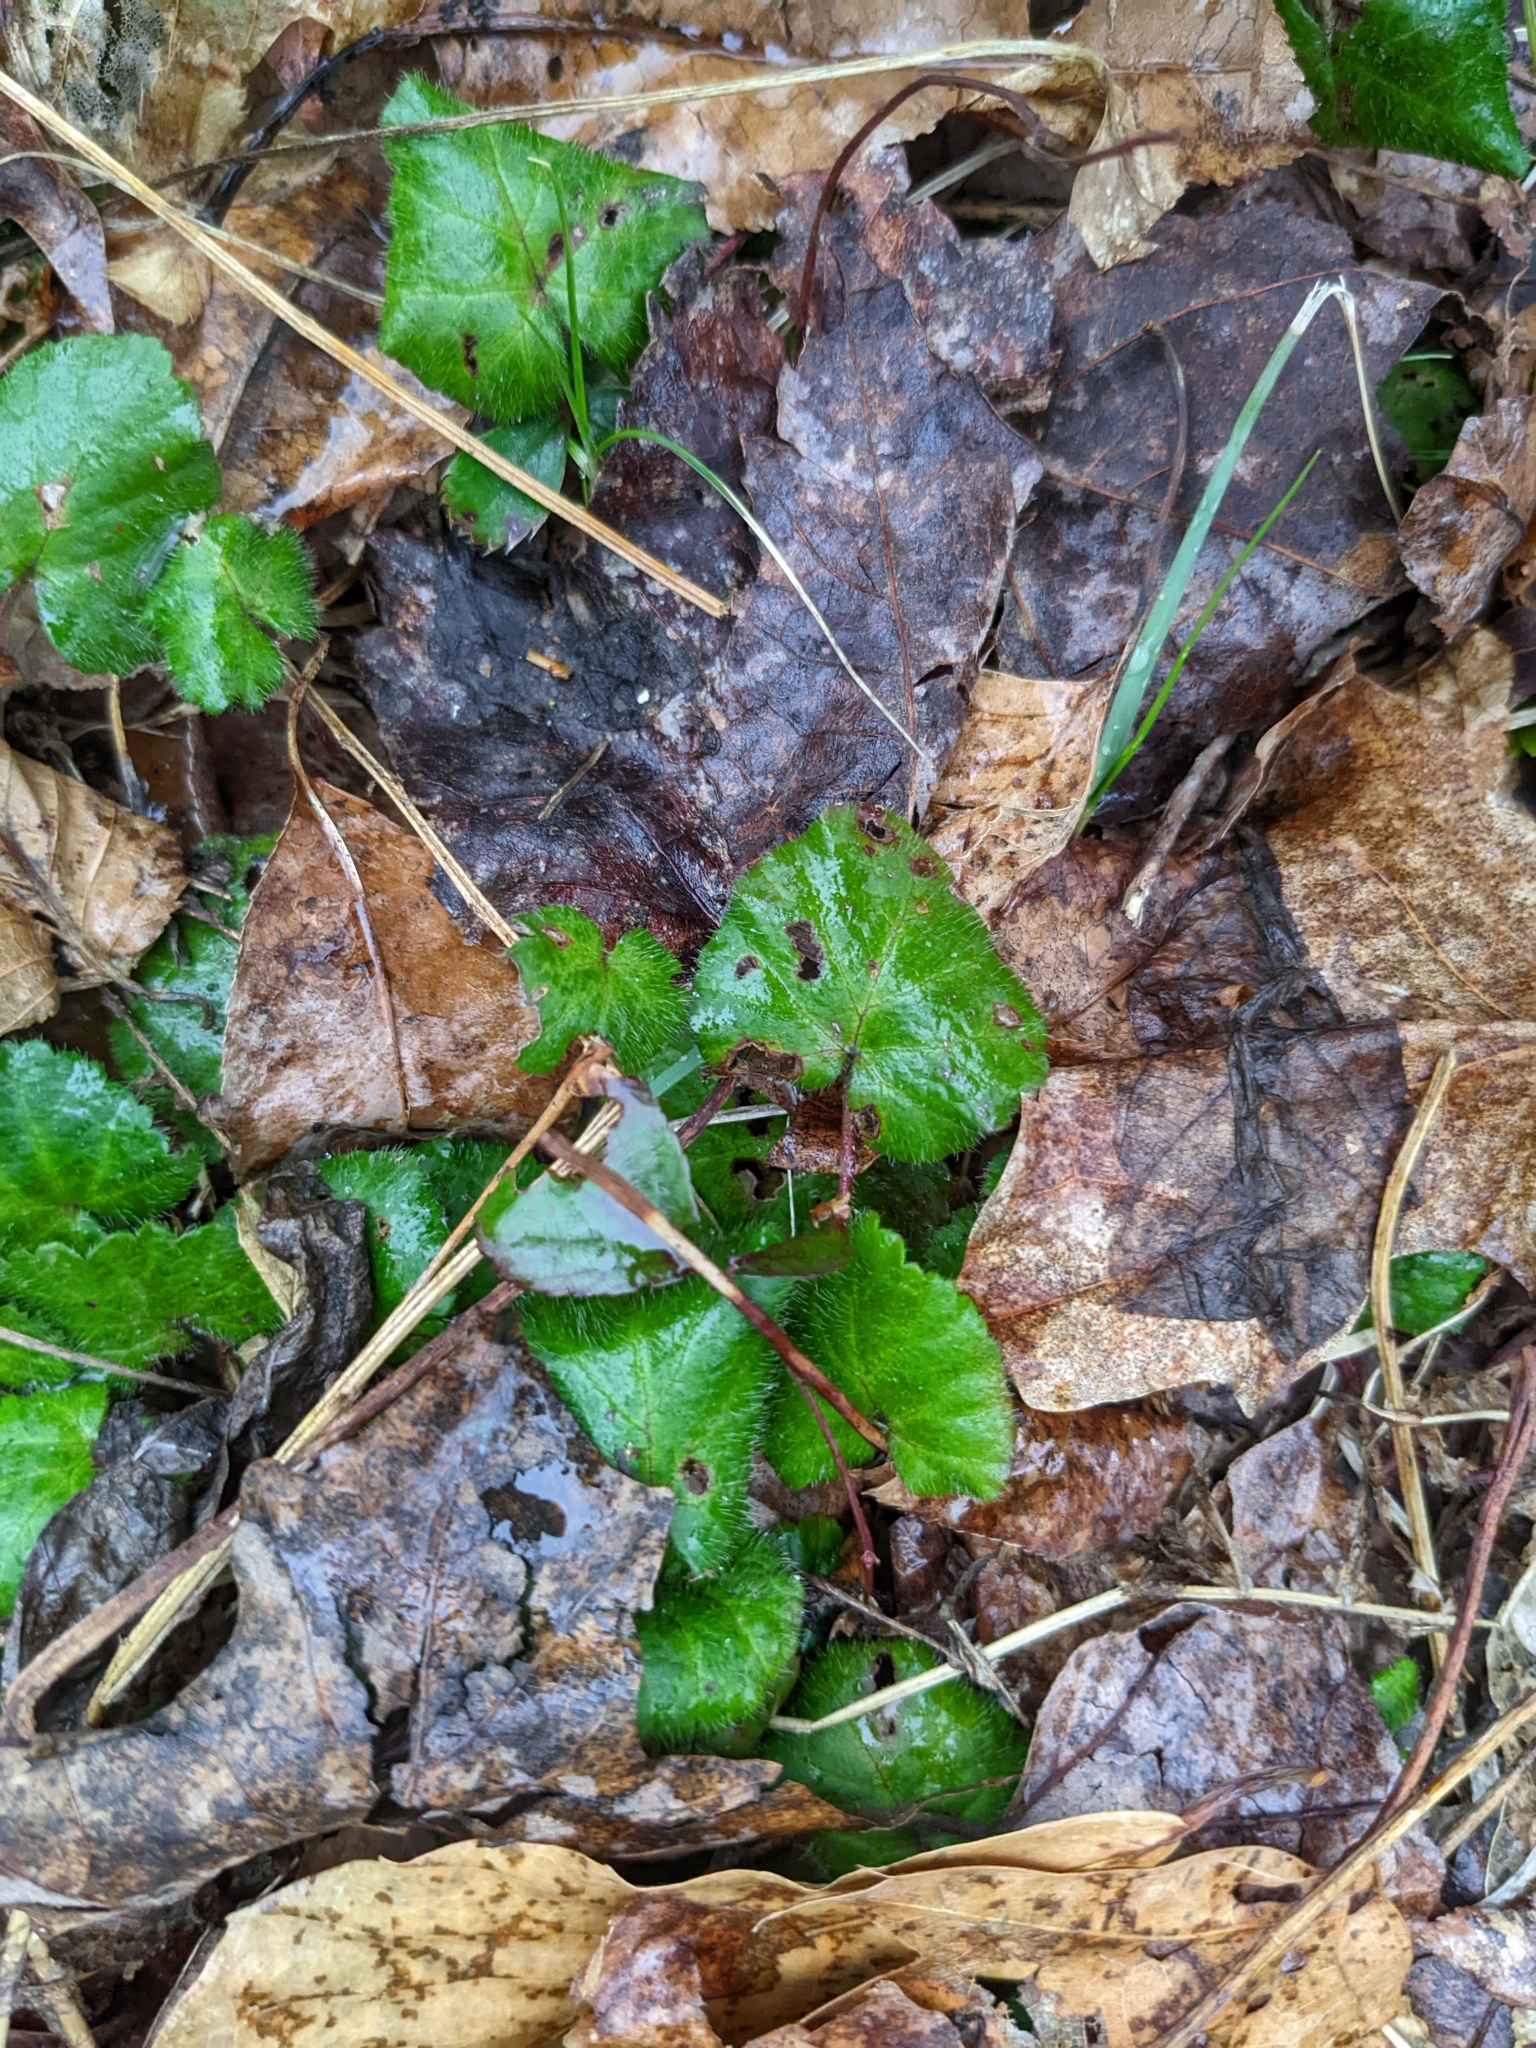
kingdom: Plantae
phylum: Tracheophyta
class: Magnoliopsida
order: Rosales
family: Rosaceae
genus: Dalibarda
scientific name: Dalibarda repens
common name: Dewdrop
